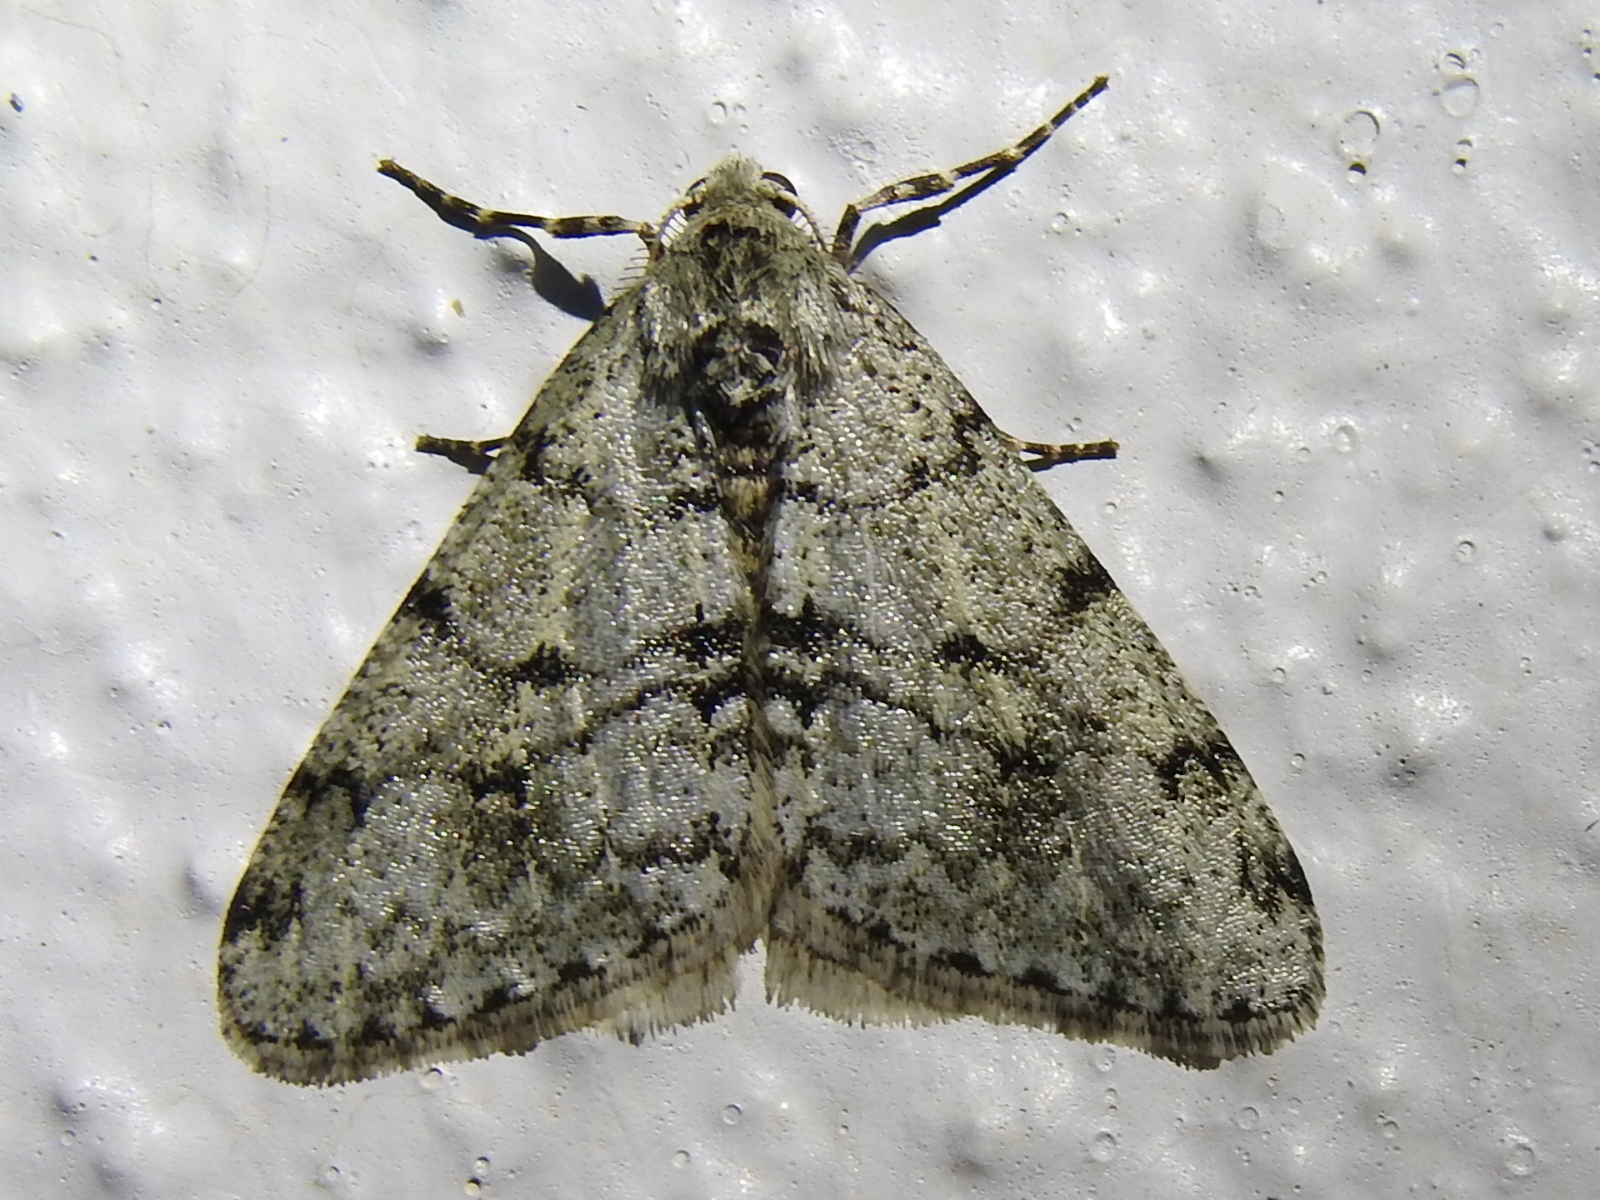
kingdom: Animalia
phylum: Arthropoda
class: Insecta
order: Lepidoptera
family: Geometridae
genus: Phigalia
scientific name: Phigalia strigataria
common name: Small phigalia
